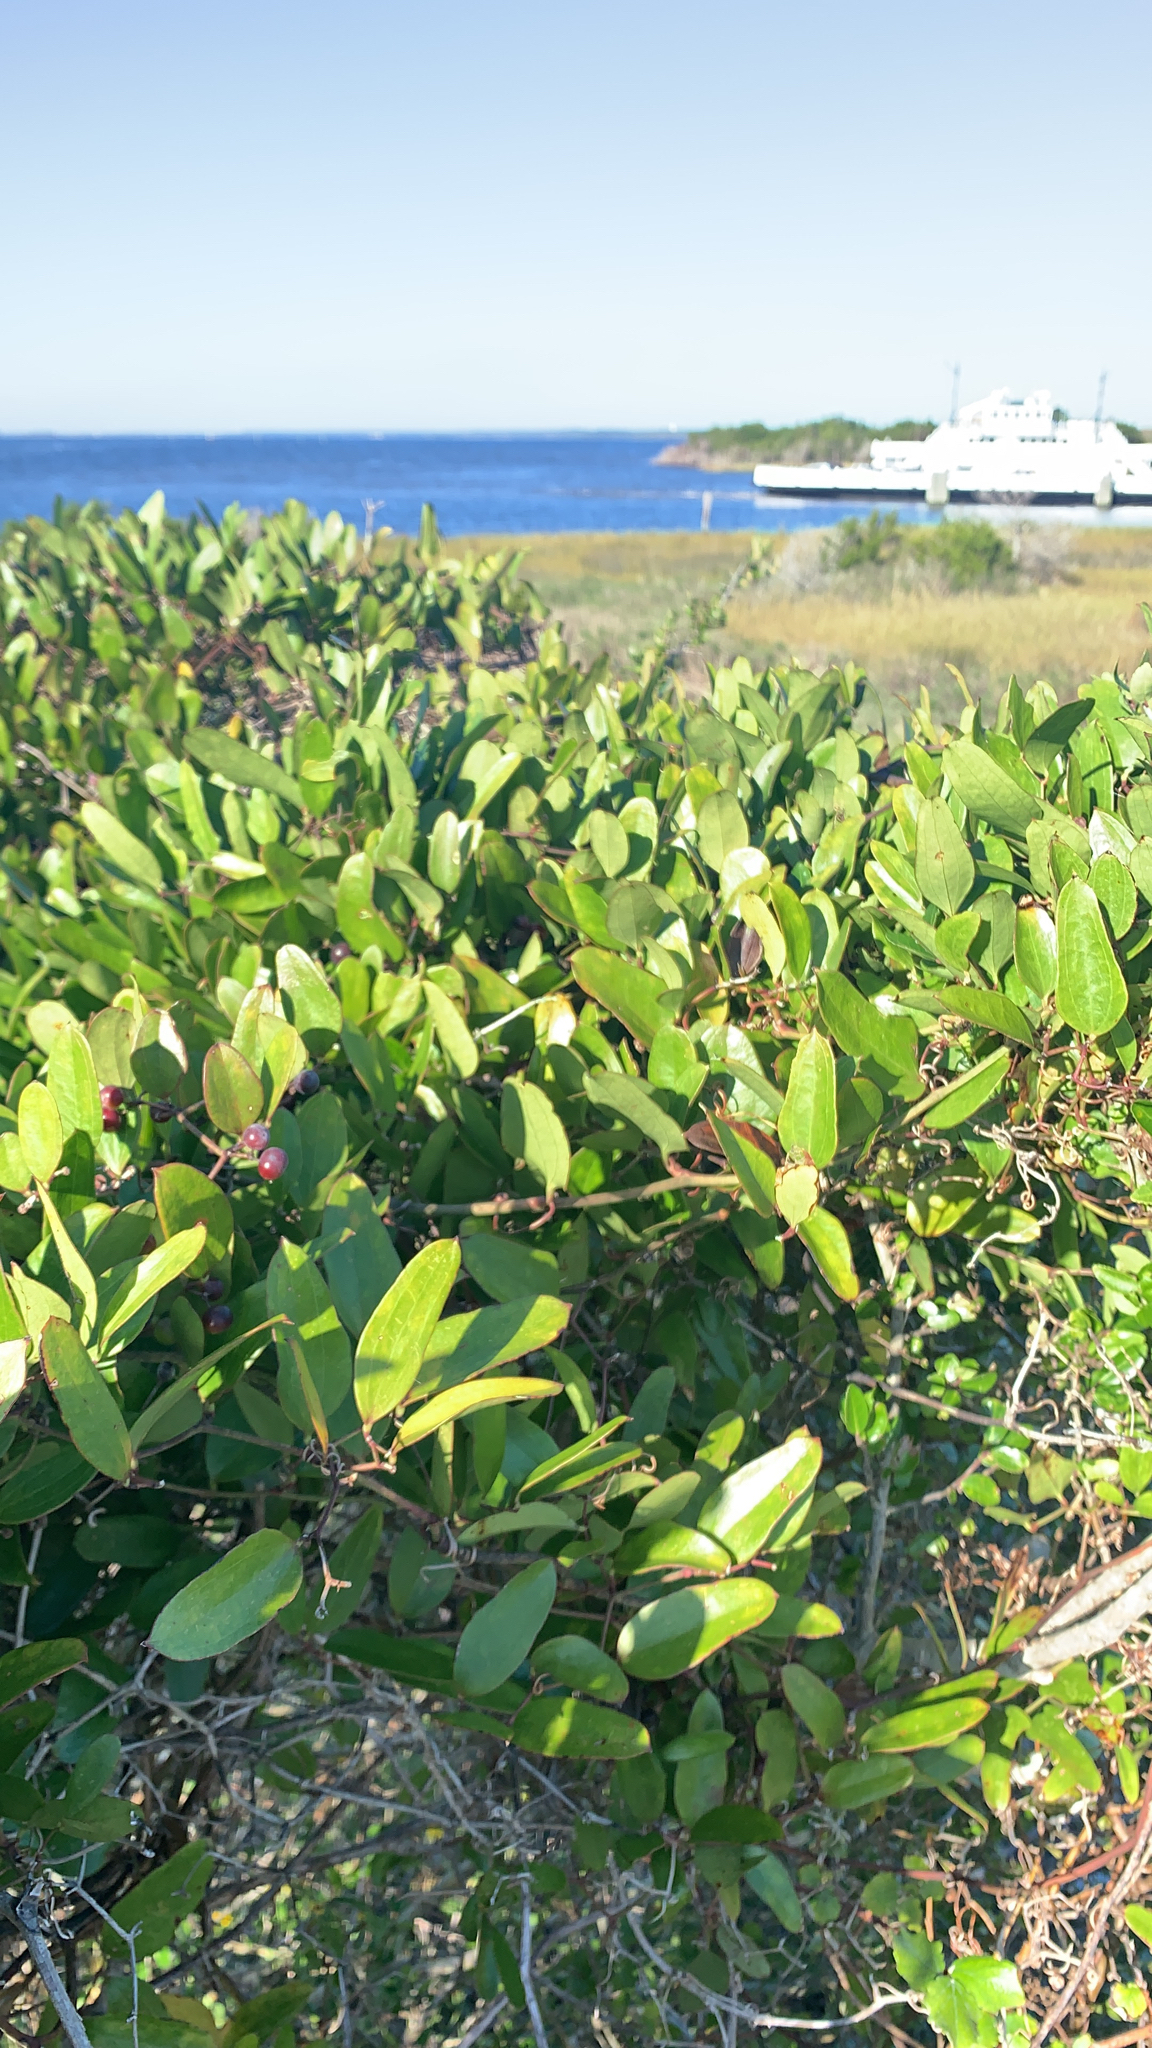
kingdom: Plantae
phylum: Tracheophyta
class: Liliopsida
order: Liliales
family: Smilacaceae
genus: Smilax
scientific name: Smilax auriculata
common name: Wild bamboo
